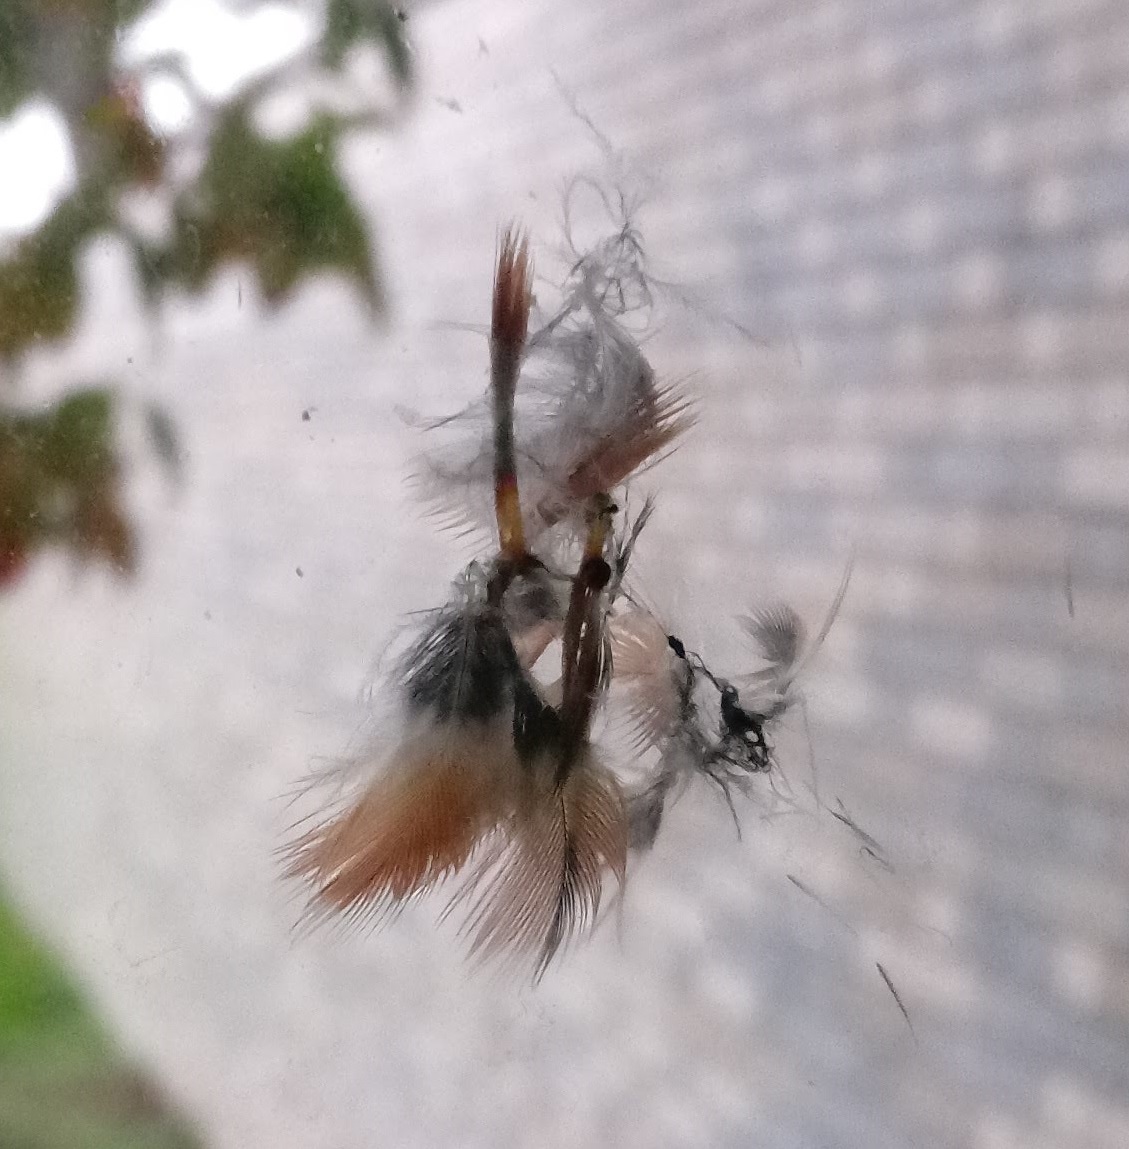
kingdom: Animalia
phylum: Chordata
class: Aves
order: Passeriformes
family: Cardinalidae
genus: Cardinalis
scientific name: Cardinalis cardinalis
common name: Northern cardinal
